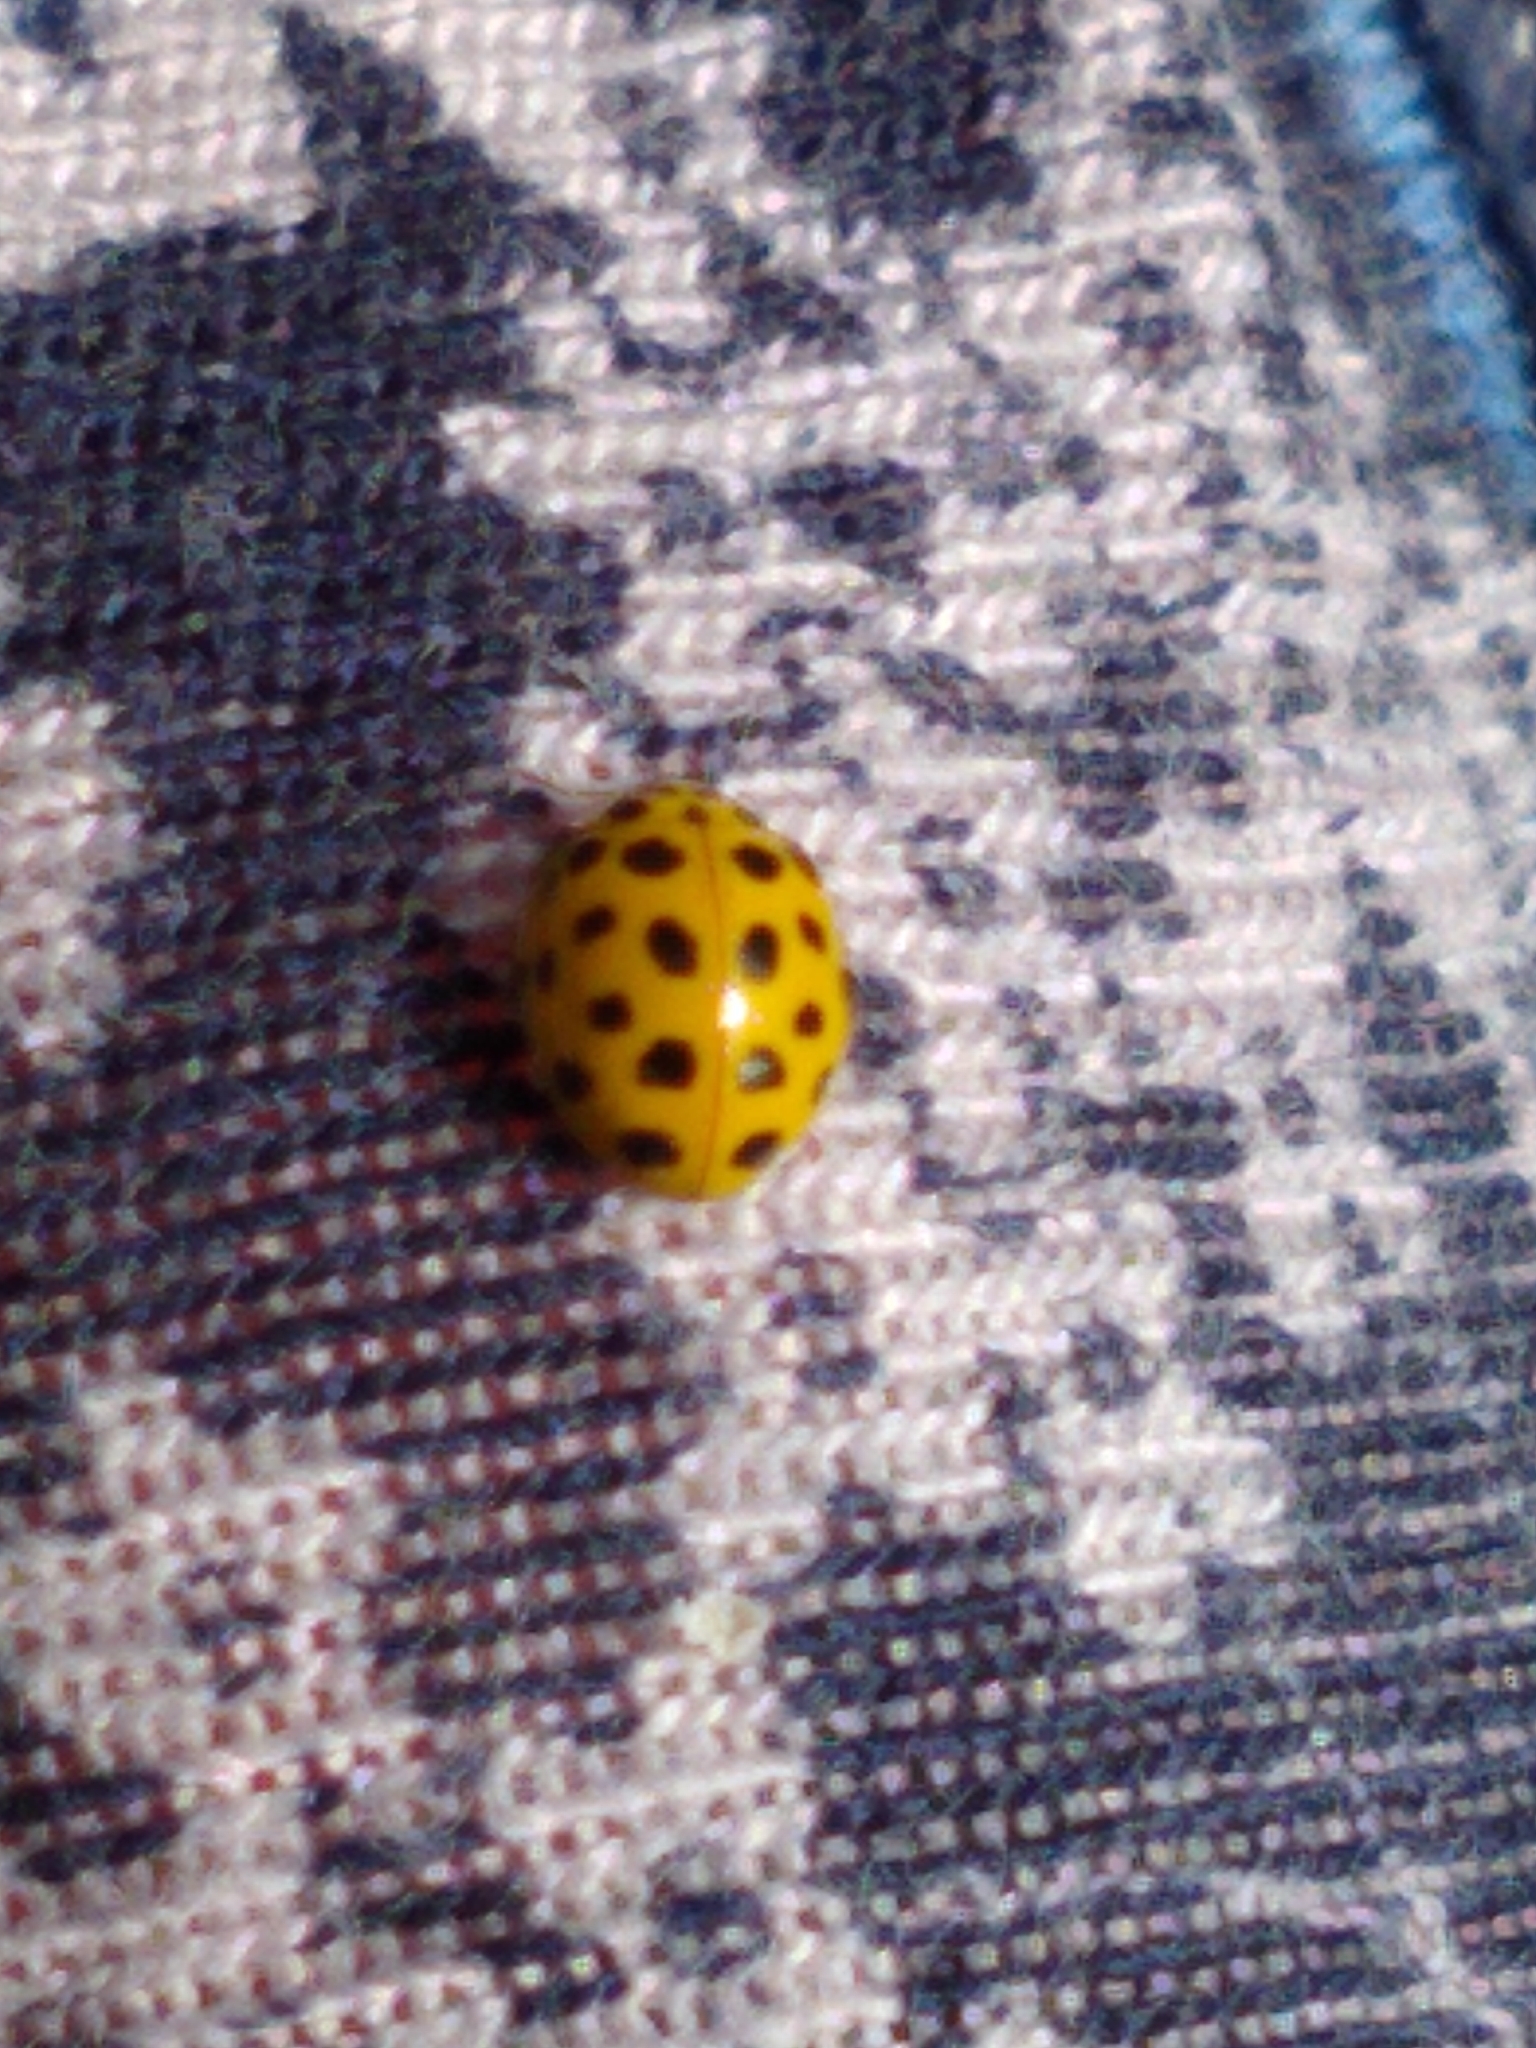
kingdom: Animalia
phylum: Arthropoda
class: Insecta
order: Coleoptera
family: Coccinellidae
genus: Psyllobora
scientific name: Psyllobora vigintiduopunctata
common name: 22-spot ladybird
